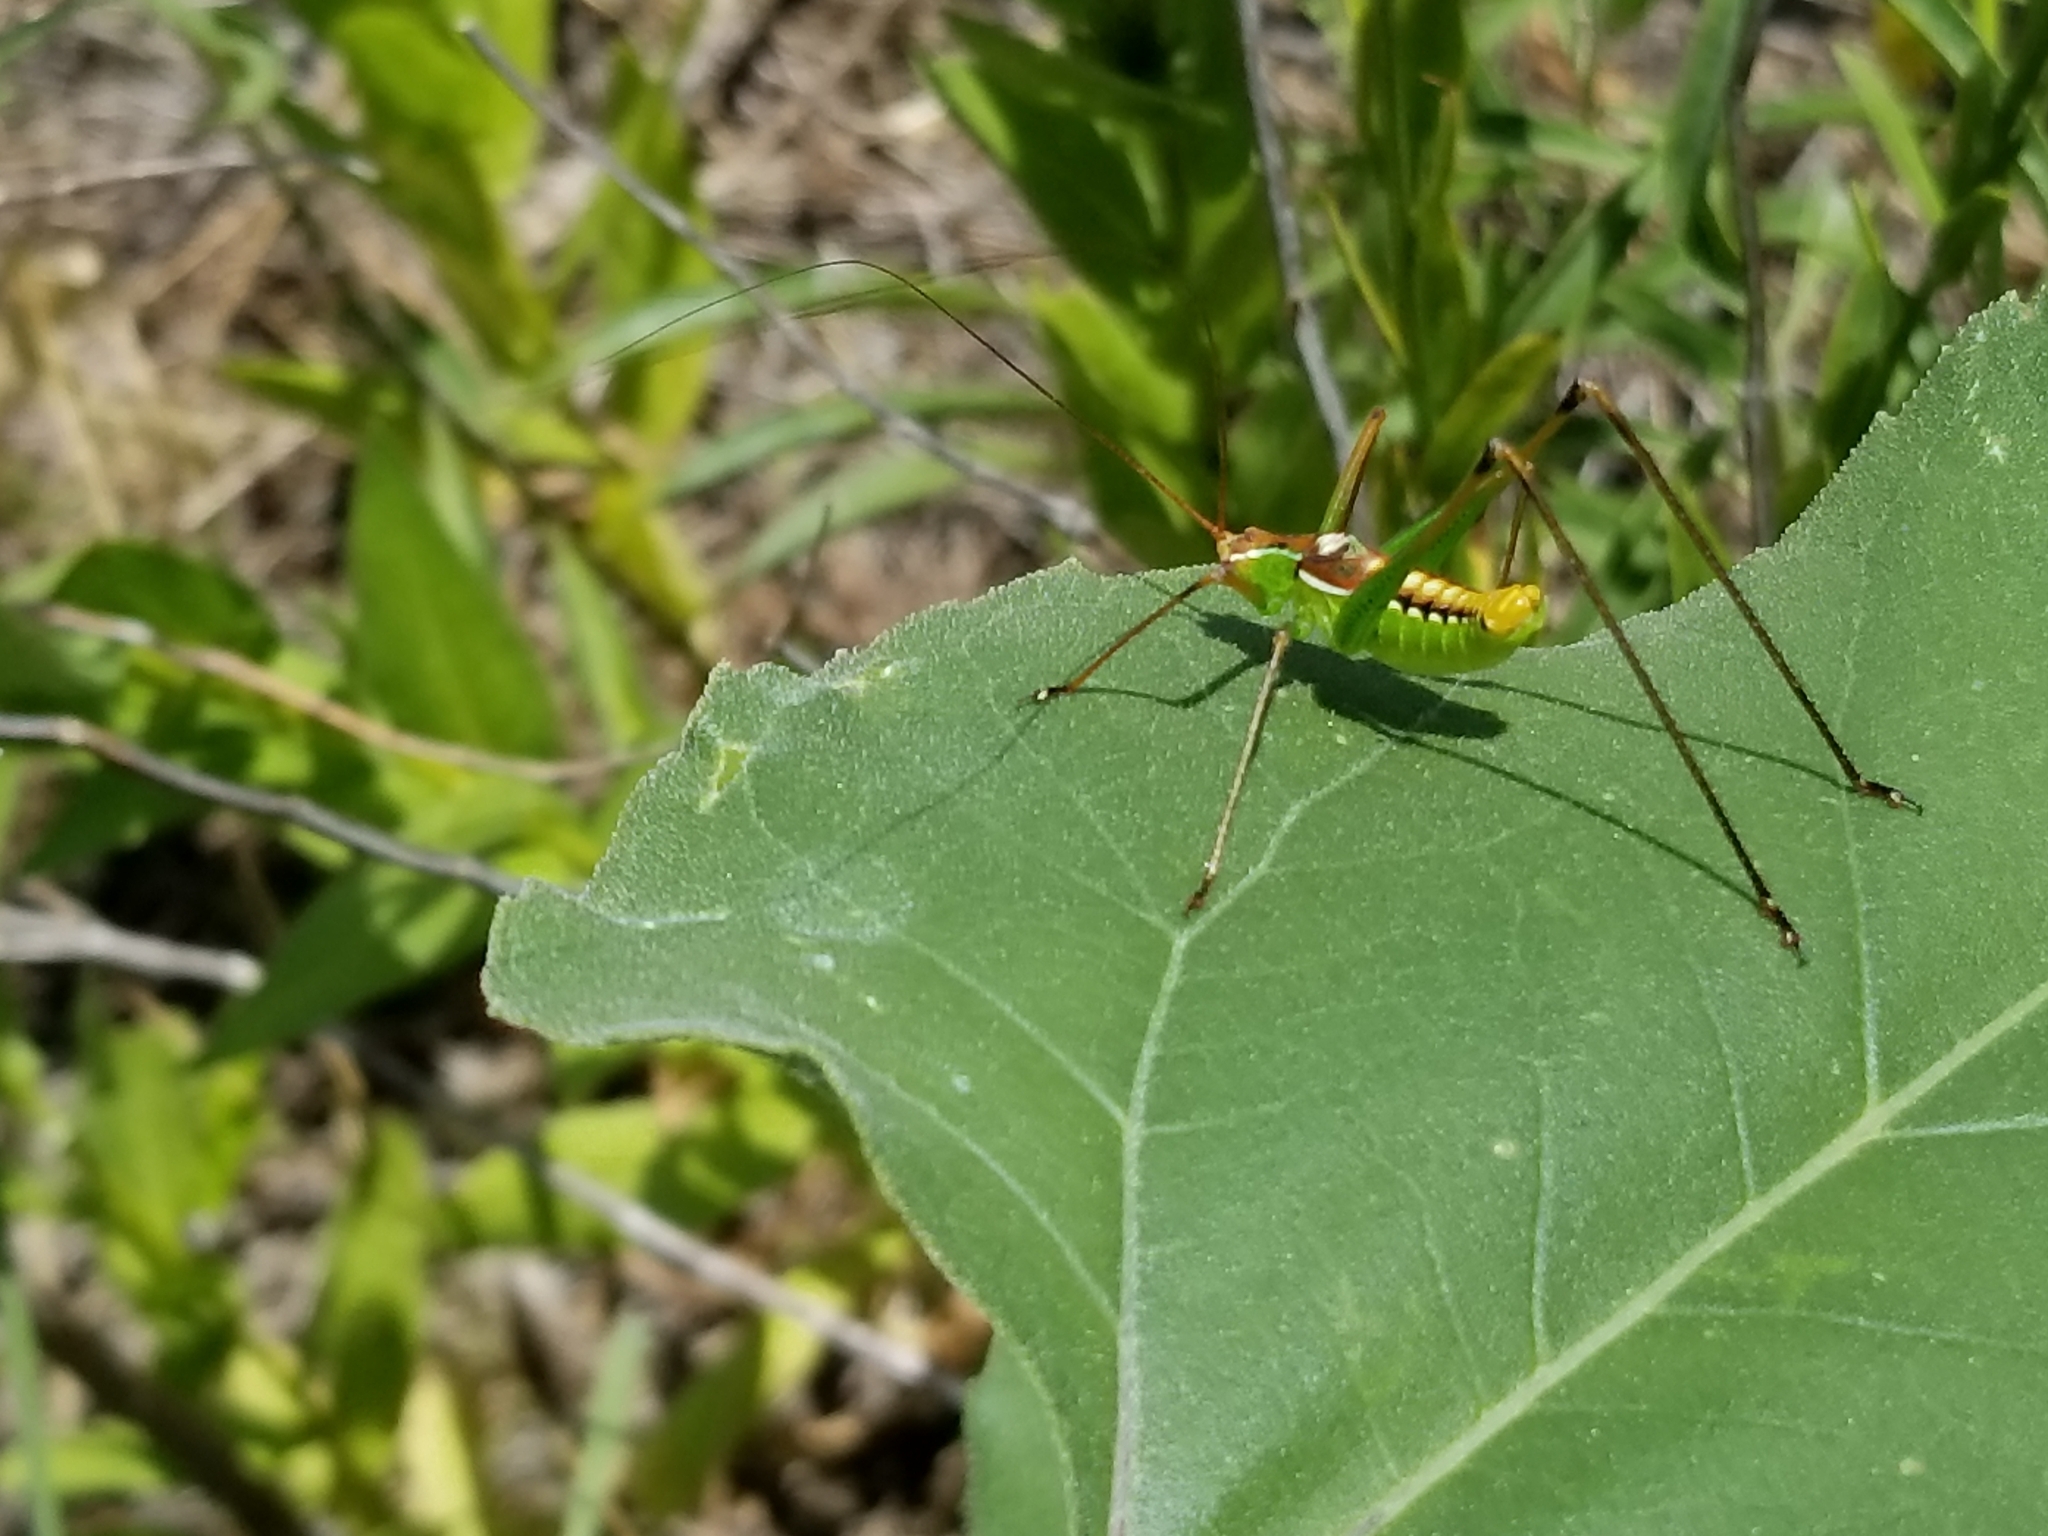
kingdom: Animalia
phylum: Arthropoda
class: Insecta
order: Orthoptera
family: Tettigoniidae
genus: Obolopteryx
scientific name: Obolopteryx brevihastata
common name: Common short-winged katydid
